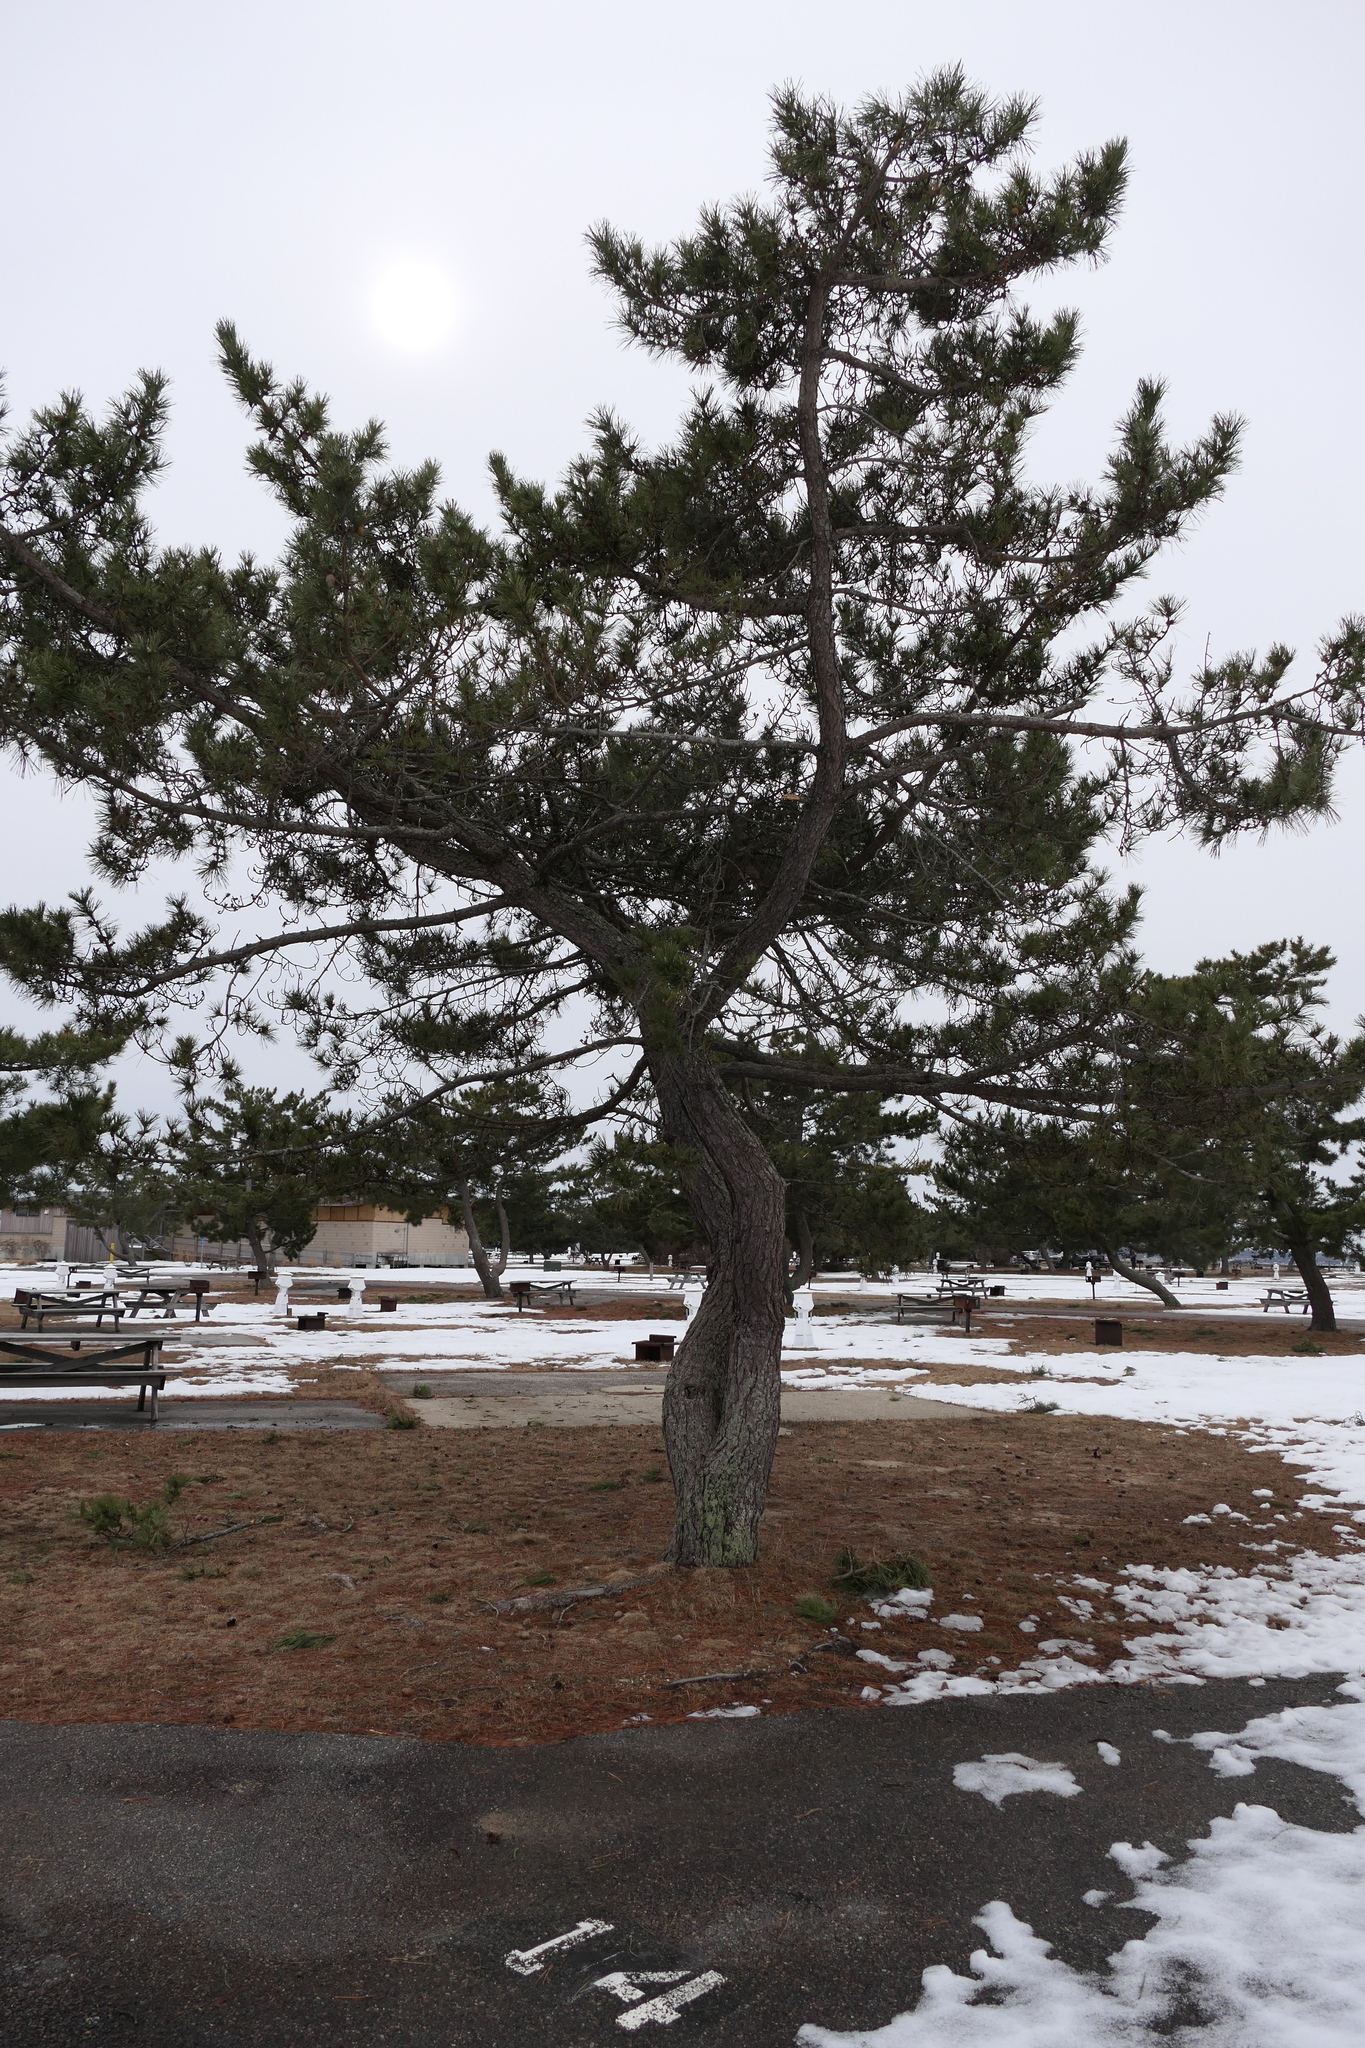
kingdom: Plantae
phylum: Tracheophyta
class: Pinopsida
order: Pinales
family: Pinaceae
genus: Pinus
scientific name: Pinus resinosa
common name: Norway pine
